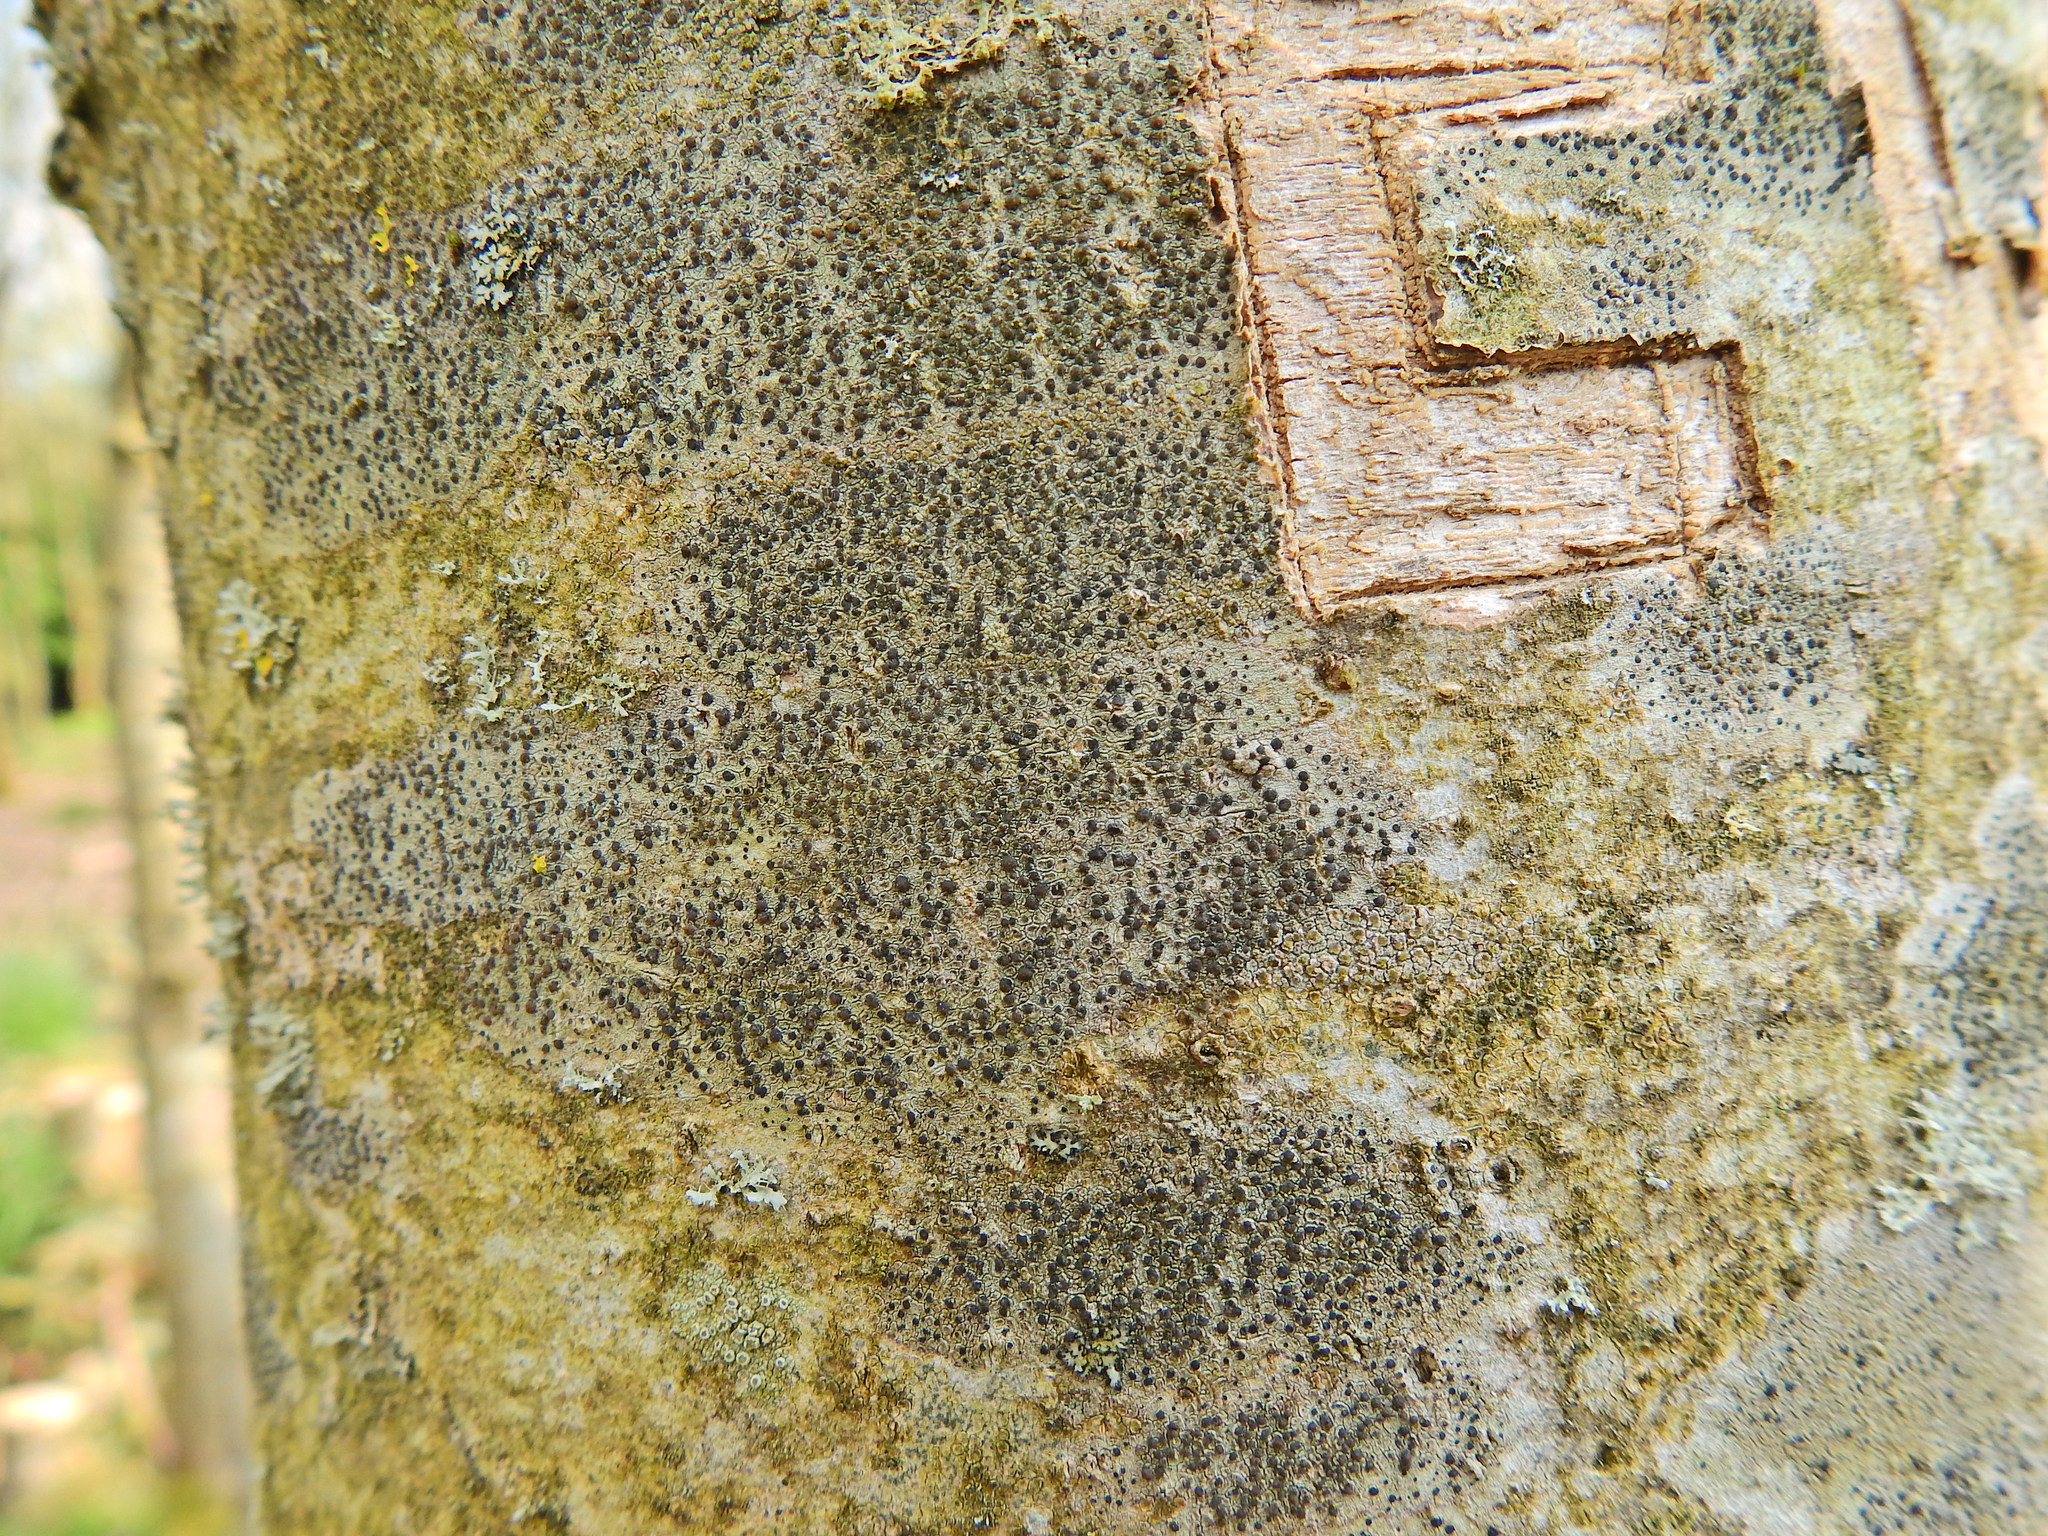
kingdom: Fungi
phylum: Ascomycota
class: Lecanoromycetes
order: Lecanorales
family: Lecanoraceae
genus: Lecidella
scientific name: Lecidella elaeochroma
